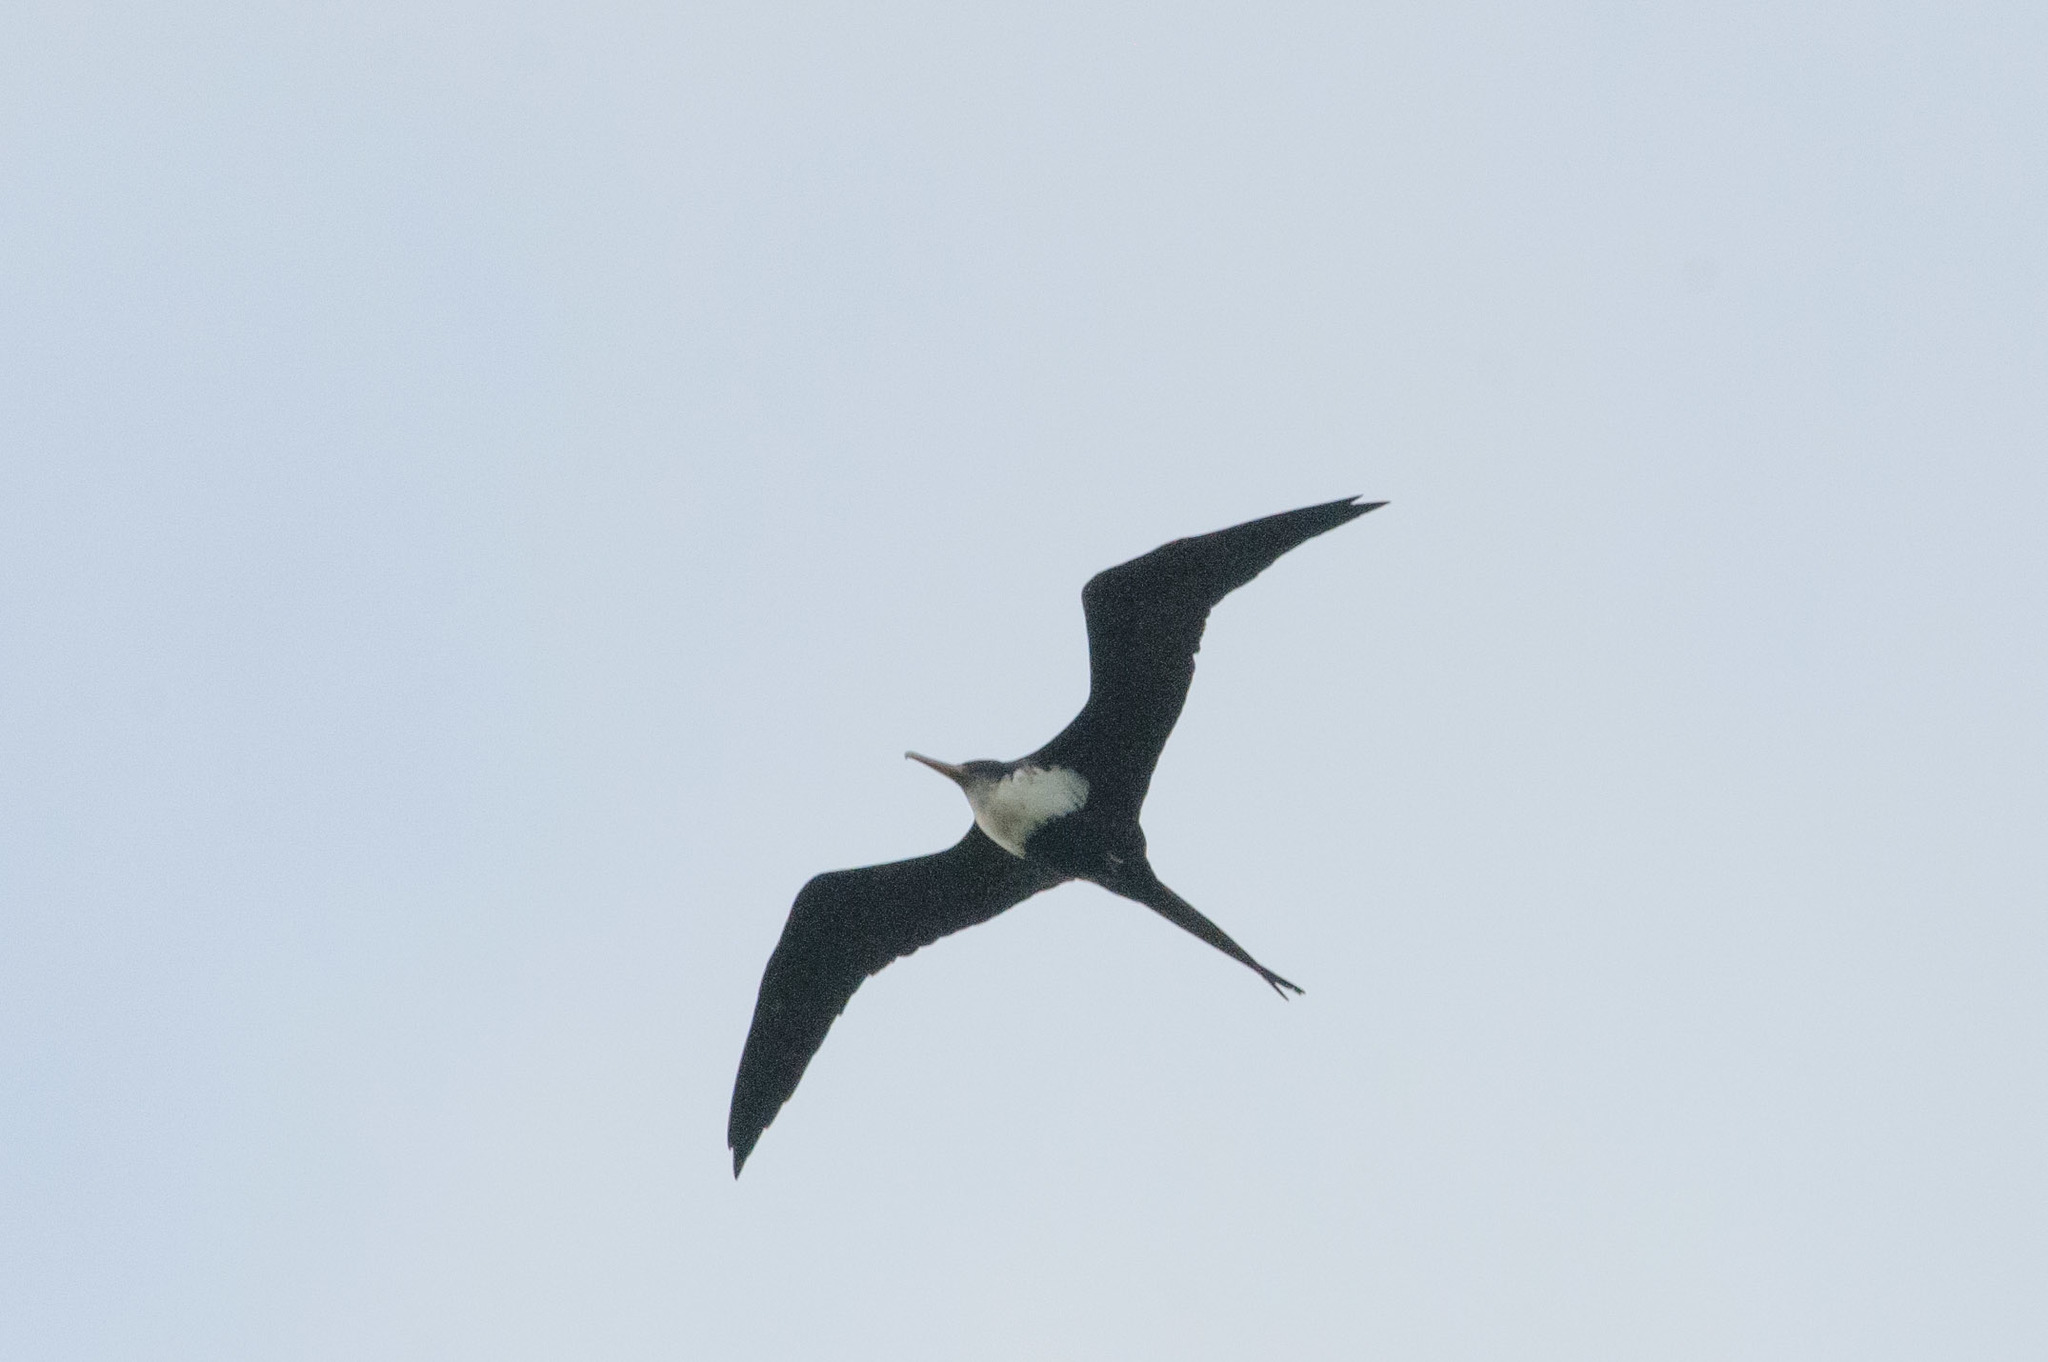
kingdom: Animalia
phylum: Chordata
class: Aves
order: Suliformes
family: Fregatidae
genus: Fregata
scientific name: Fregata minor
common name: Great frigatebird
